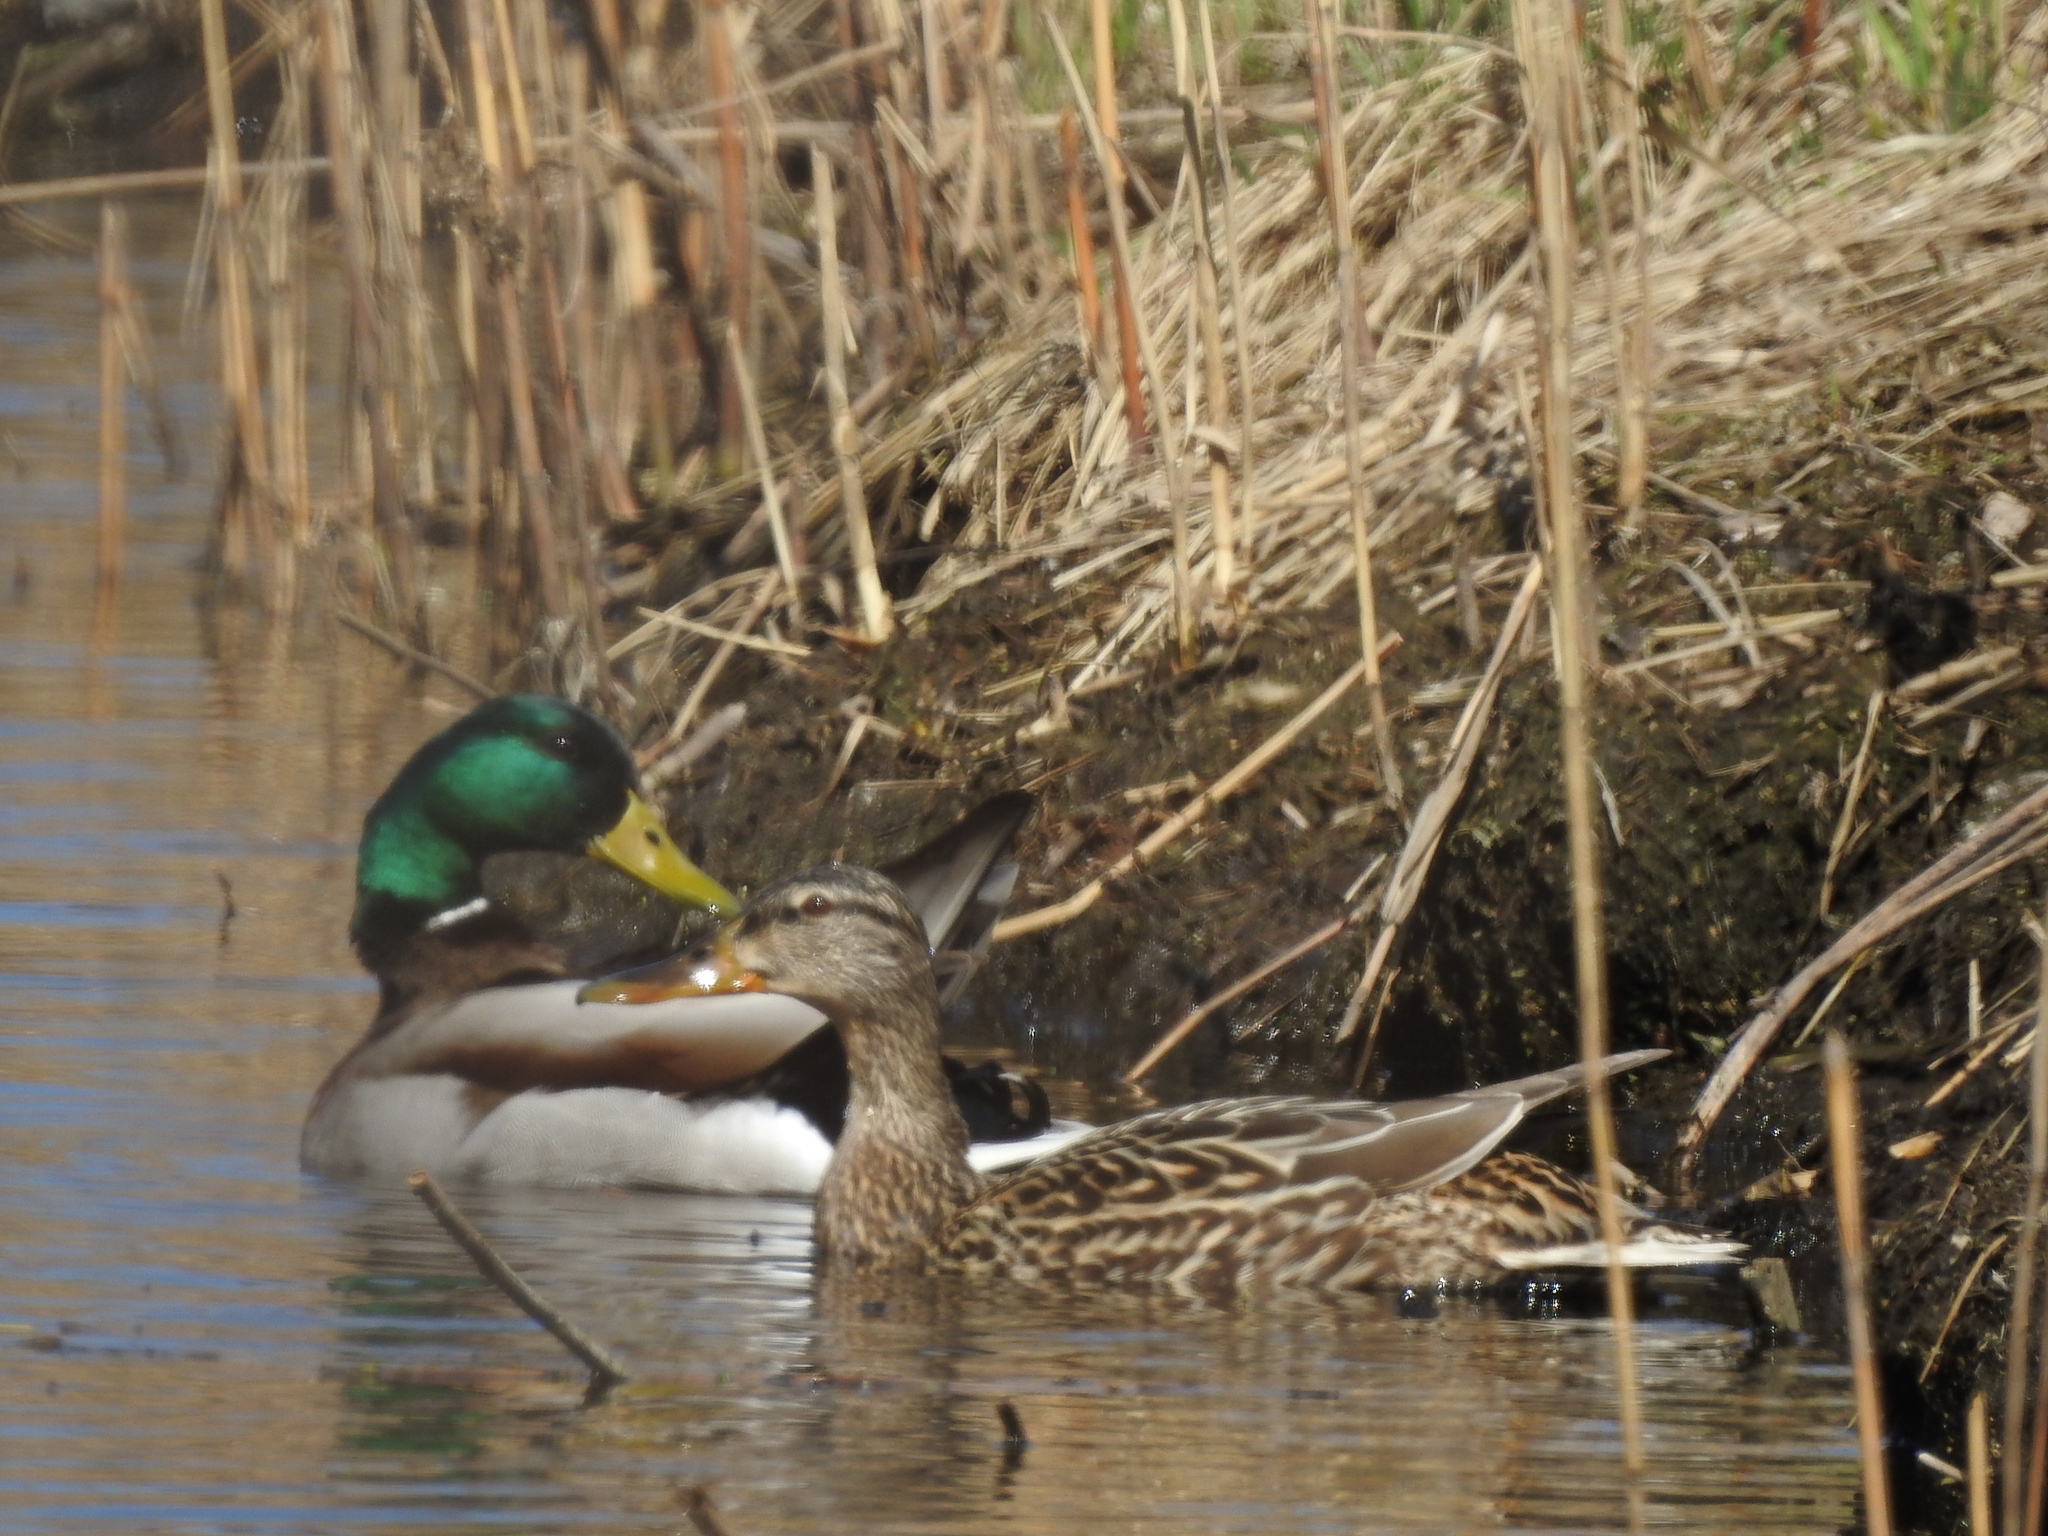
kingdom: Animalia
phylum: Chordata
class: Aves
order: Anseriformes
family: Anatidae
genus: Anas
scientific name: Anas platyrhynchos
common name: Mallard
